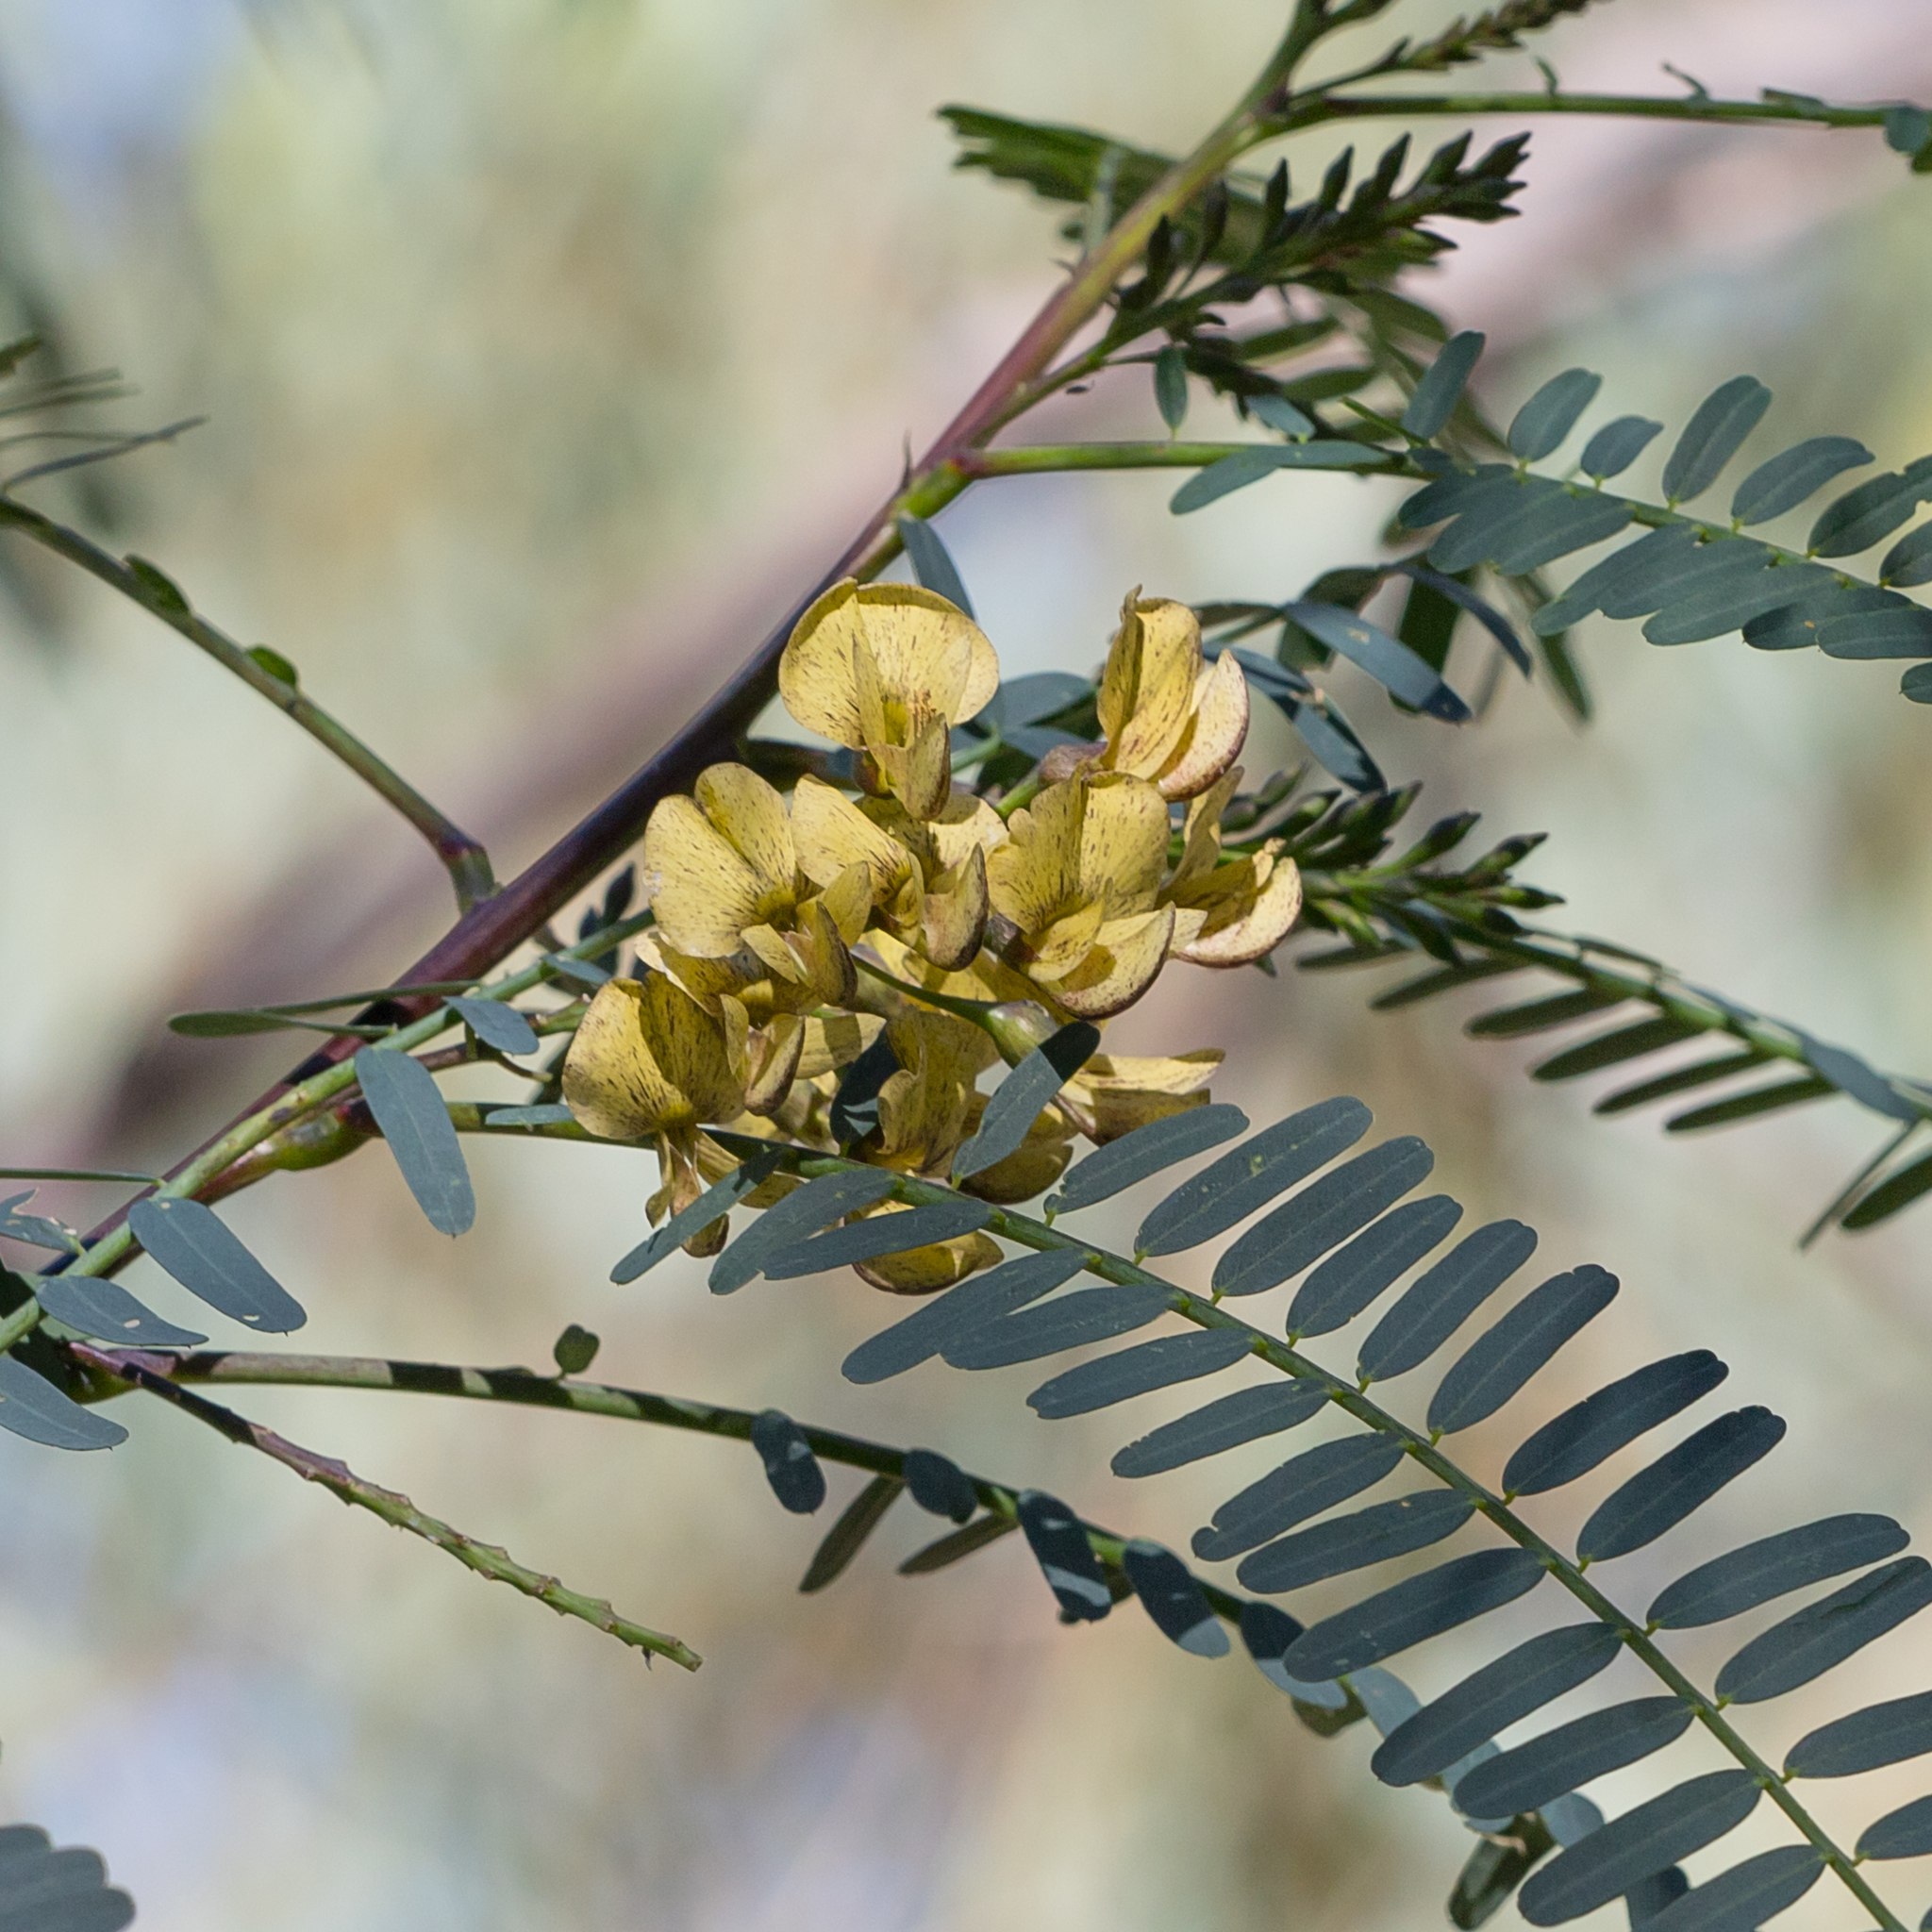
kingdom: Plantae
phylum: Tracheophyta
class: Magnoliopsida
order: Fabales
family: Fabaceae
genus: Sesbania
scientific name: Sesbania benthamiana
